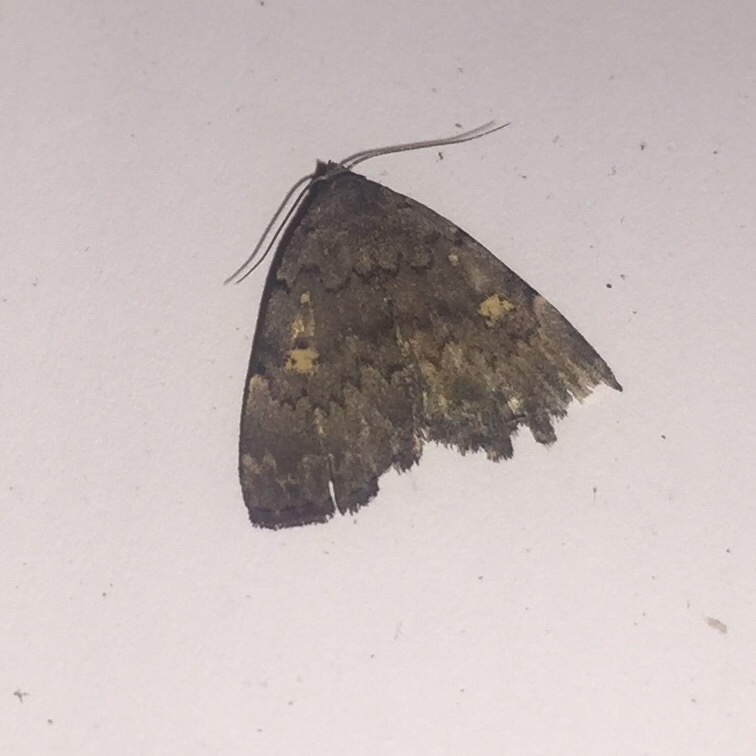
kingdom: Animalia
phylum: Arthropoda
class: Insecta
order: Lepidoptera
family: Erebidae
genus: Idia
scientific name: Idia aemula
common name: Common idia moth
